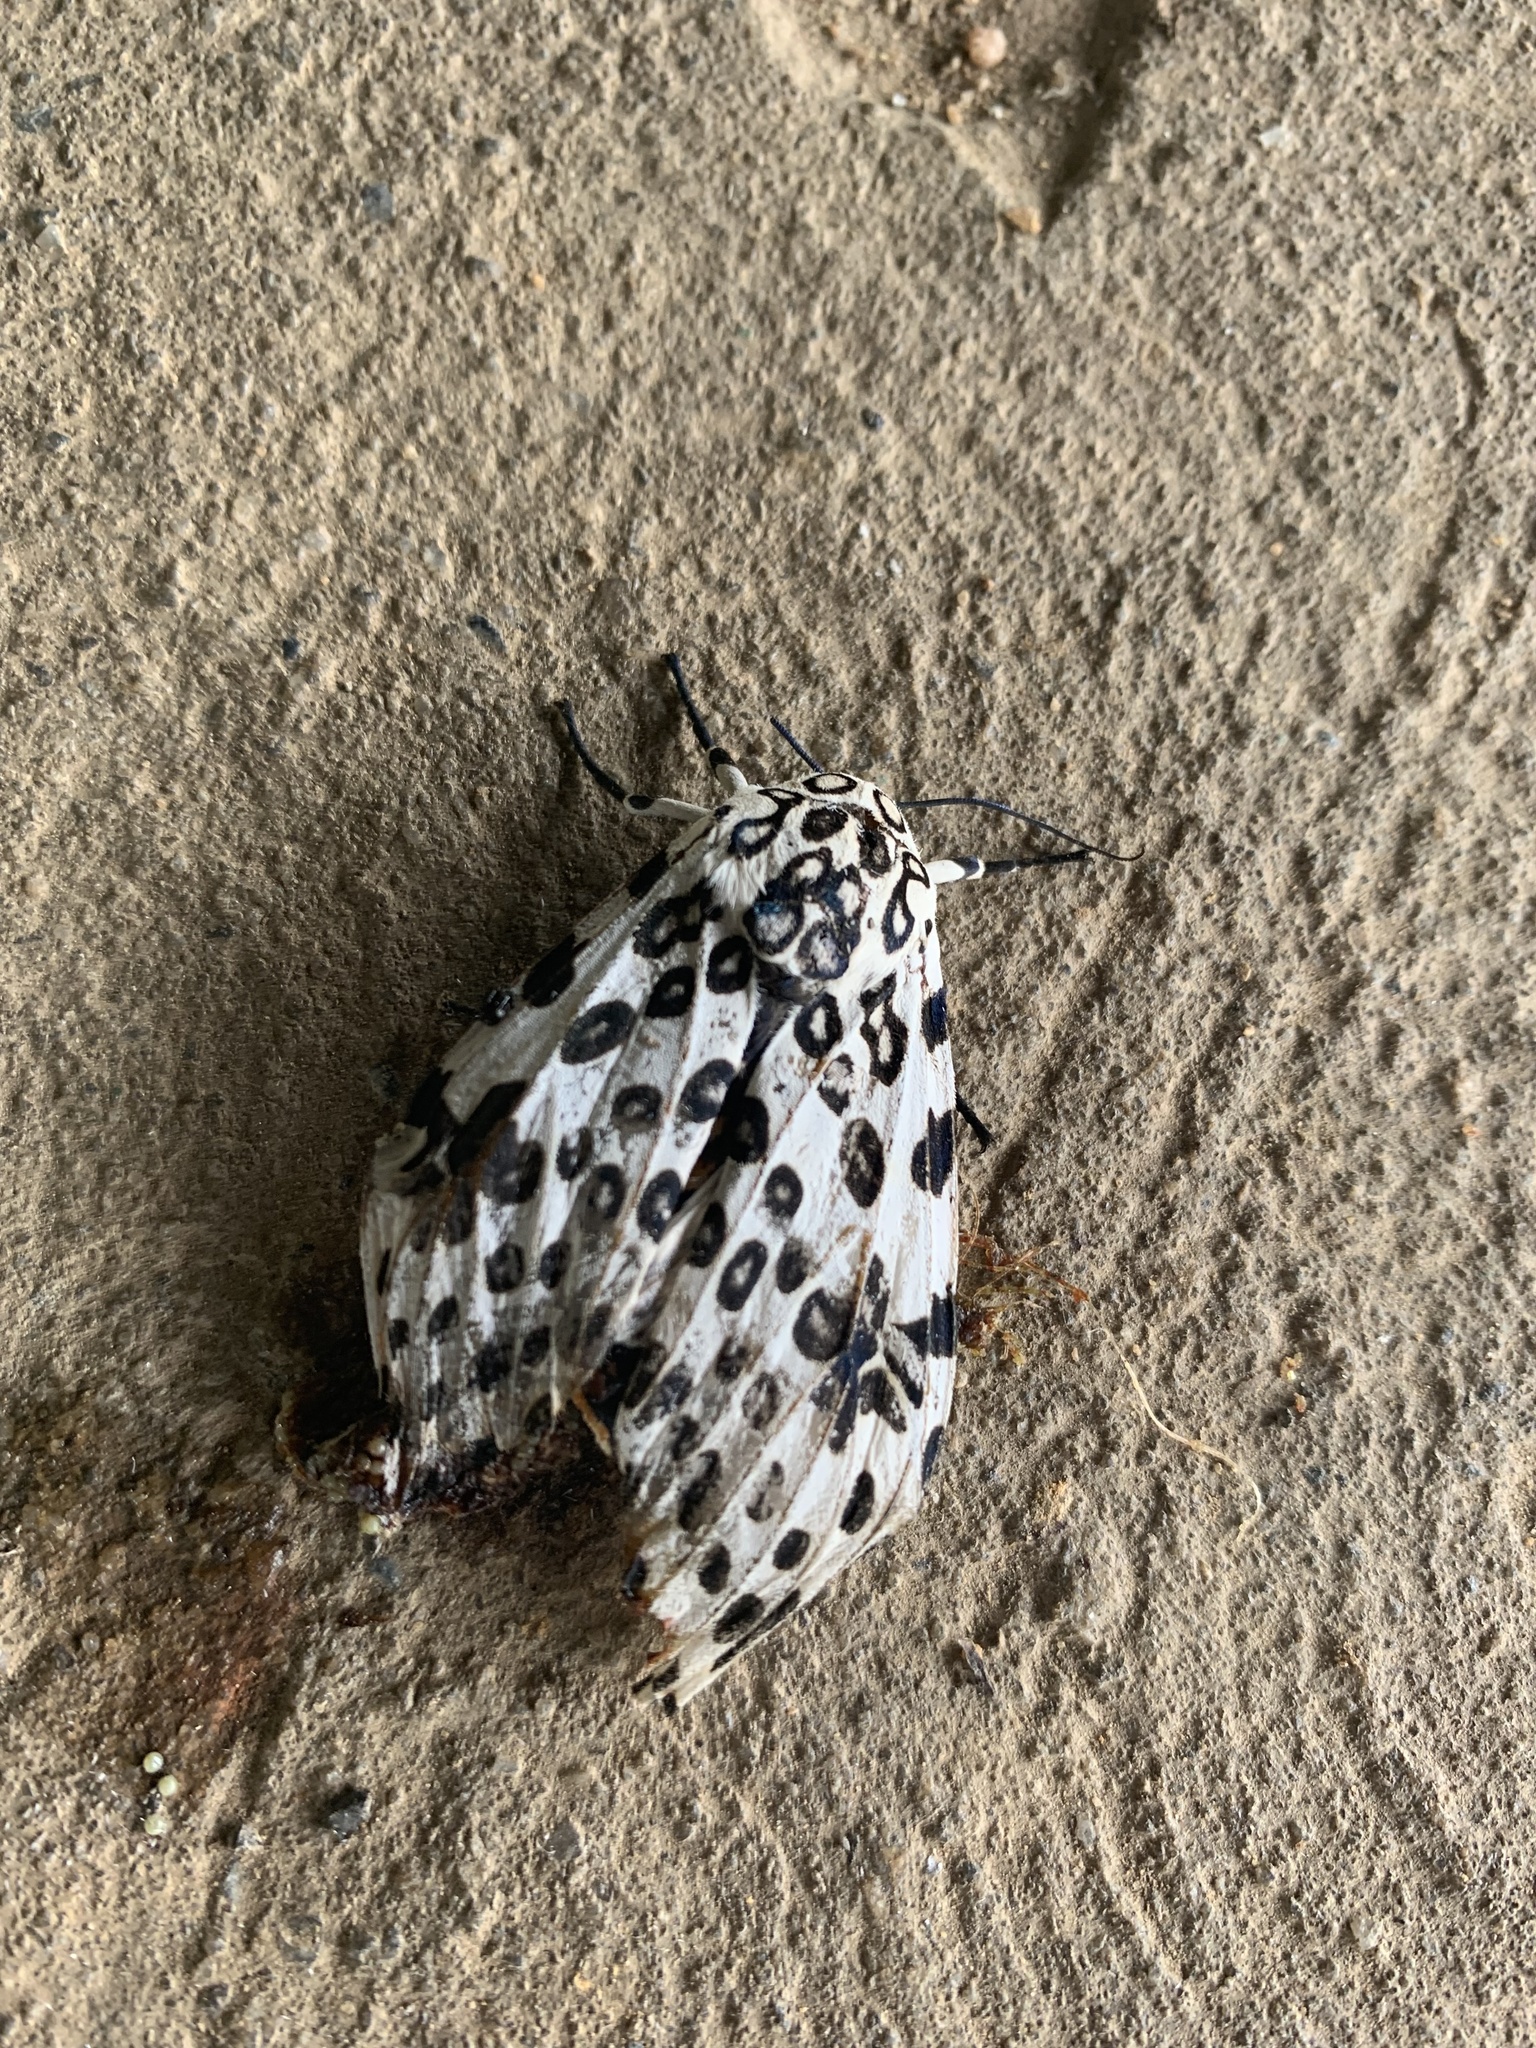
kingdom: Animalia
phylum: Arthropoda
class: Insecta
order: Lepidoptera
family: Erebidae
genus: Hypercompe
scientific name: Hypercompe scribonia
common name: Giant leopard moth
